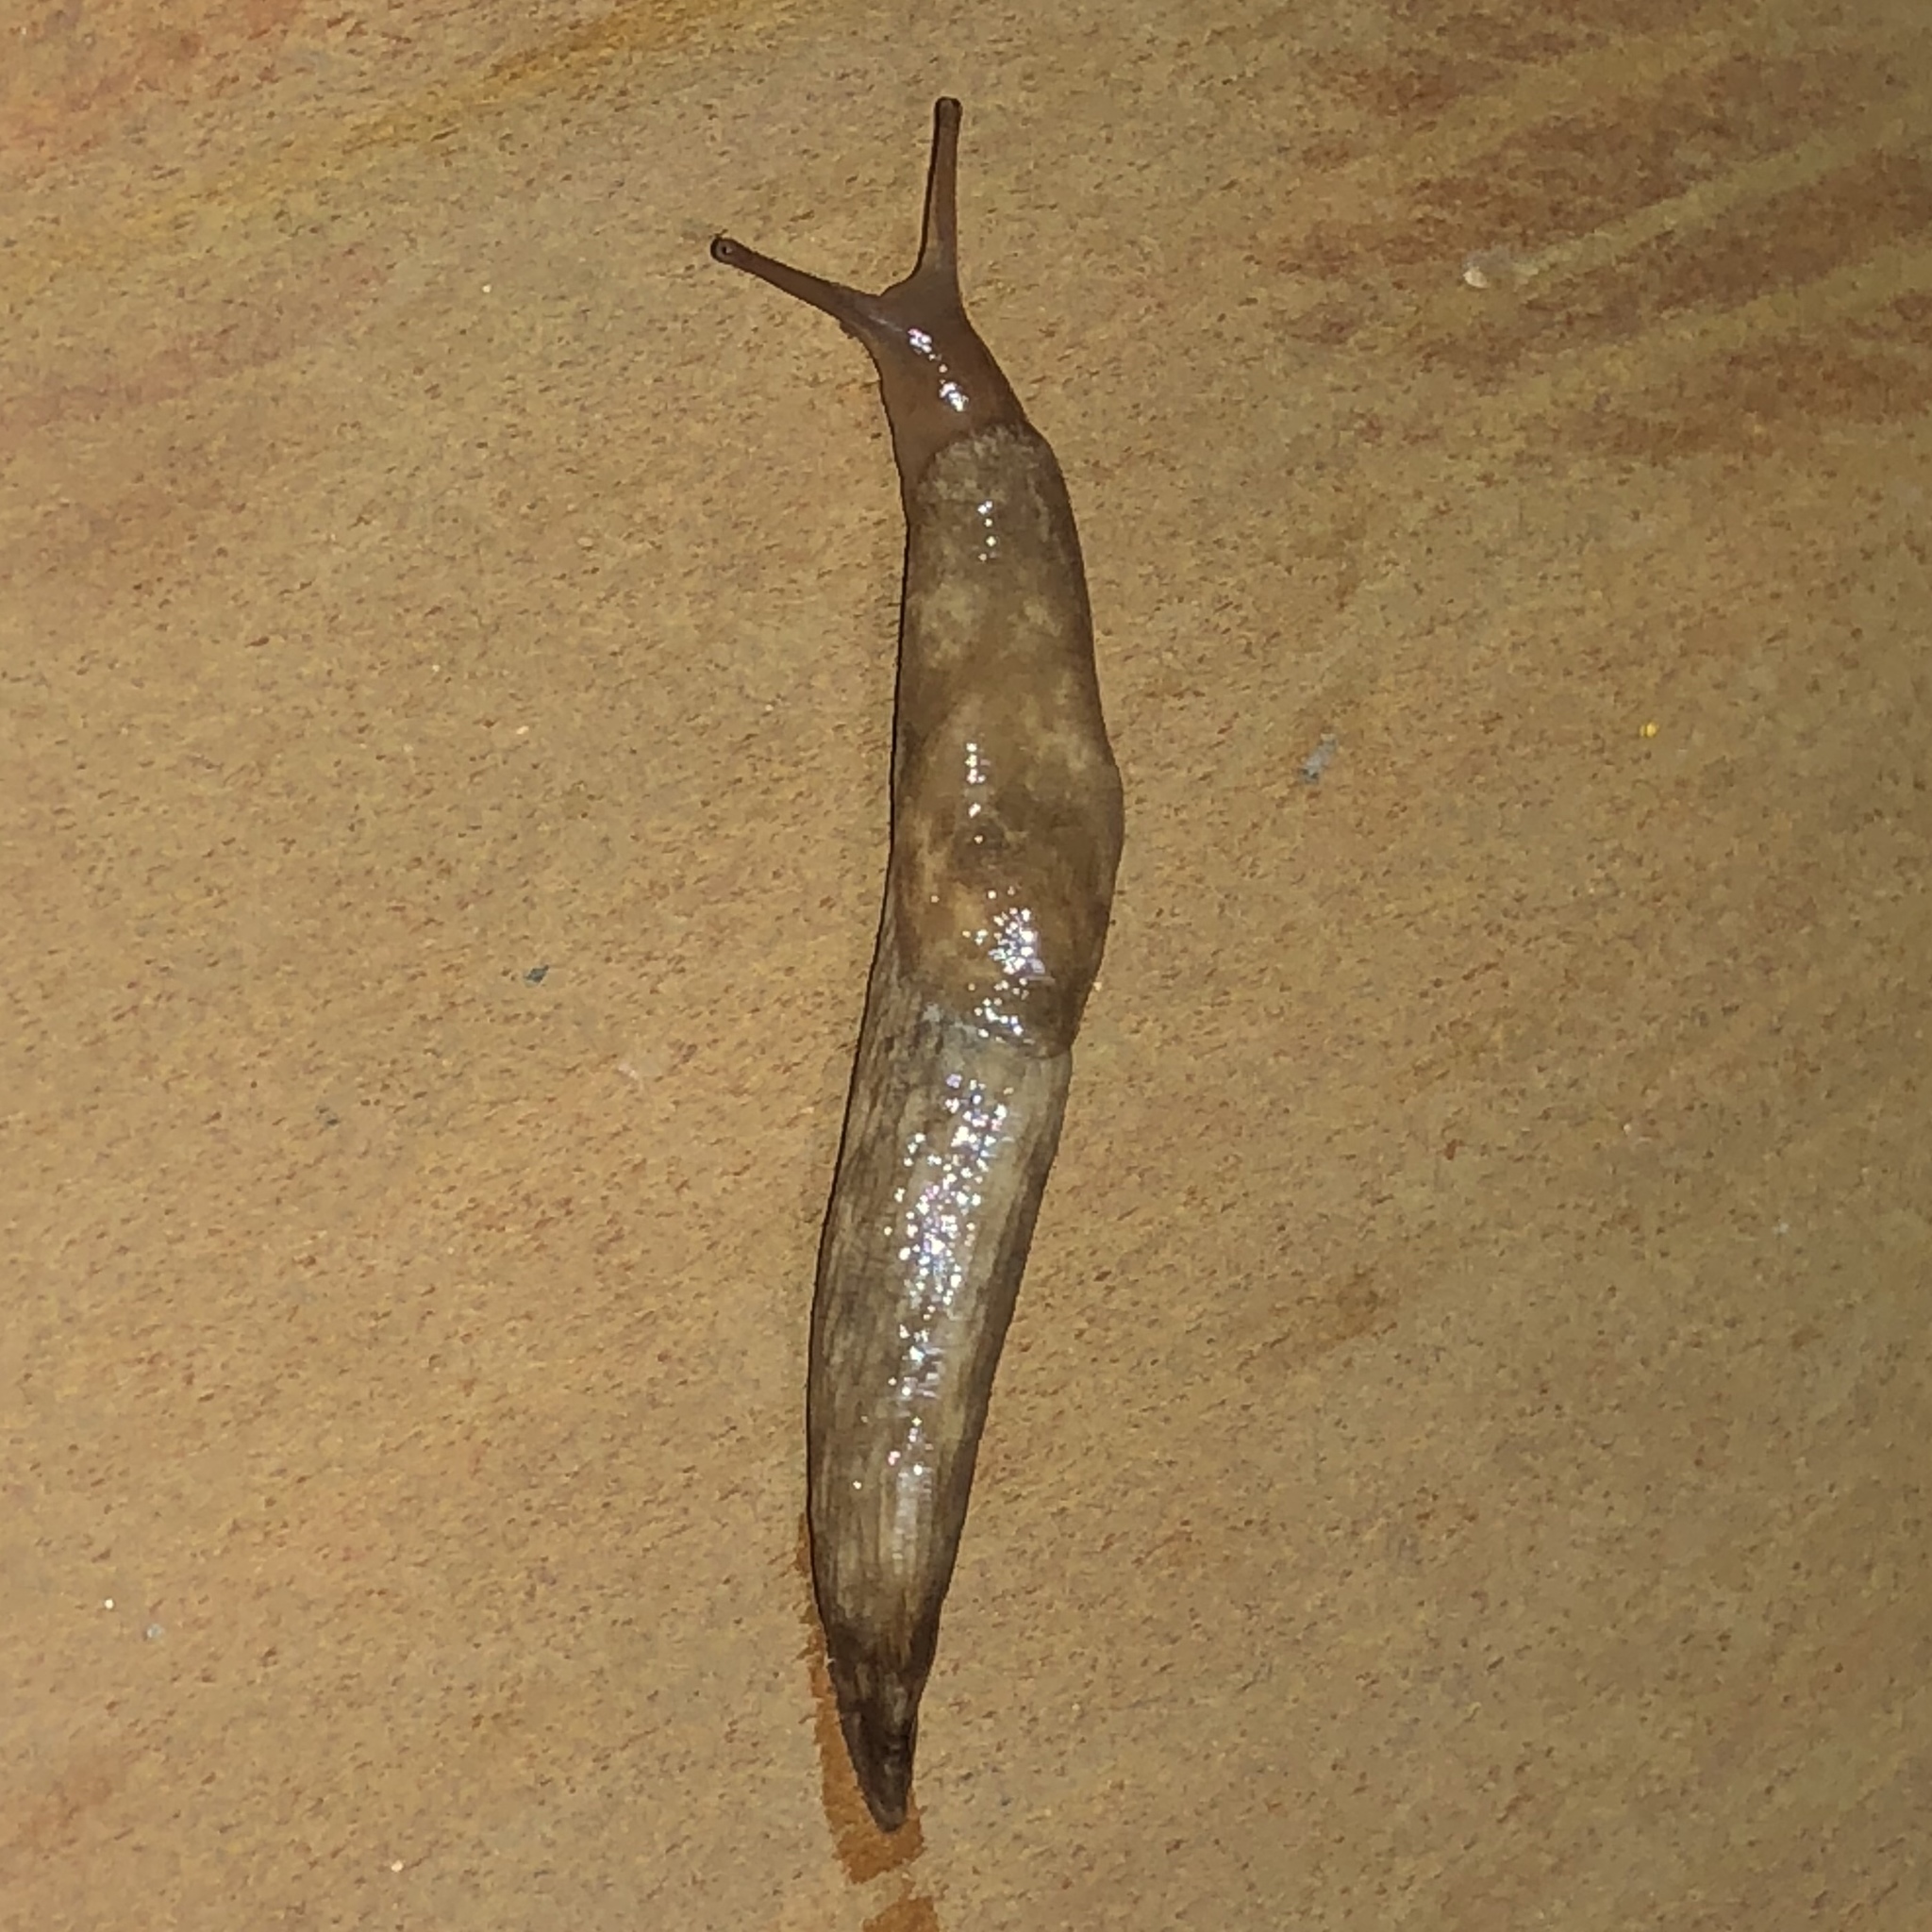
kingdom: Animalia
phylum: Mollusca
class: Gastropoda
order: Stylommatophora
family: Agriolimacidae
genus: Deroceras
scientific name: Deroceras reticulatum
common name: Gray field slug
